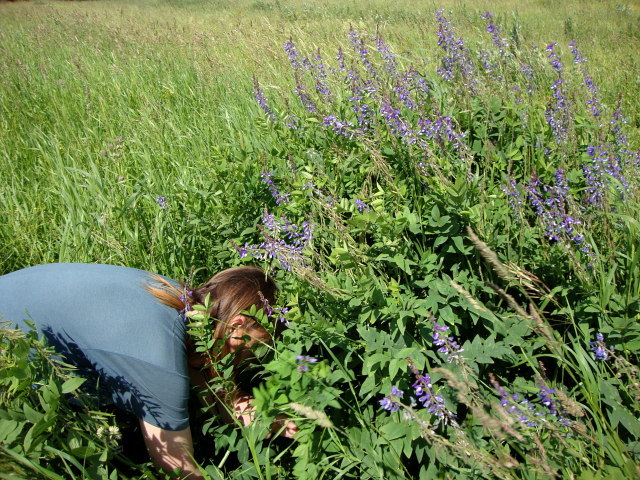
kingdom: Plantae
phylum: Tracheophyta
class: Magnoliopsida
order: Fabales
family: Fabaceae
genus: Galega
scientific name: Galega orientalis
